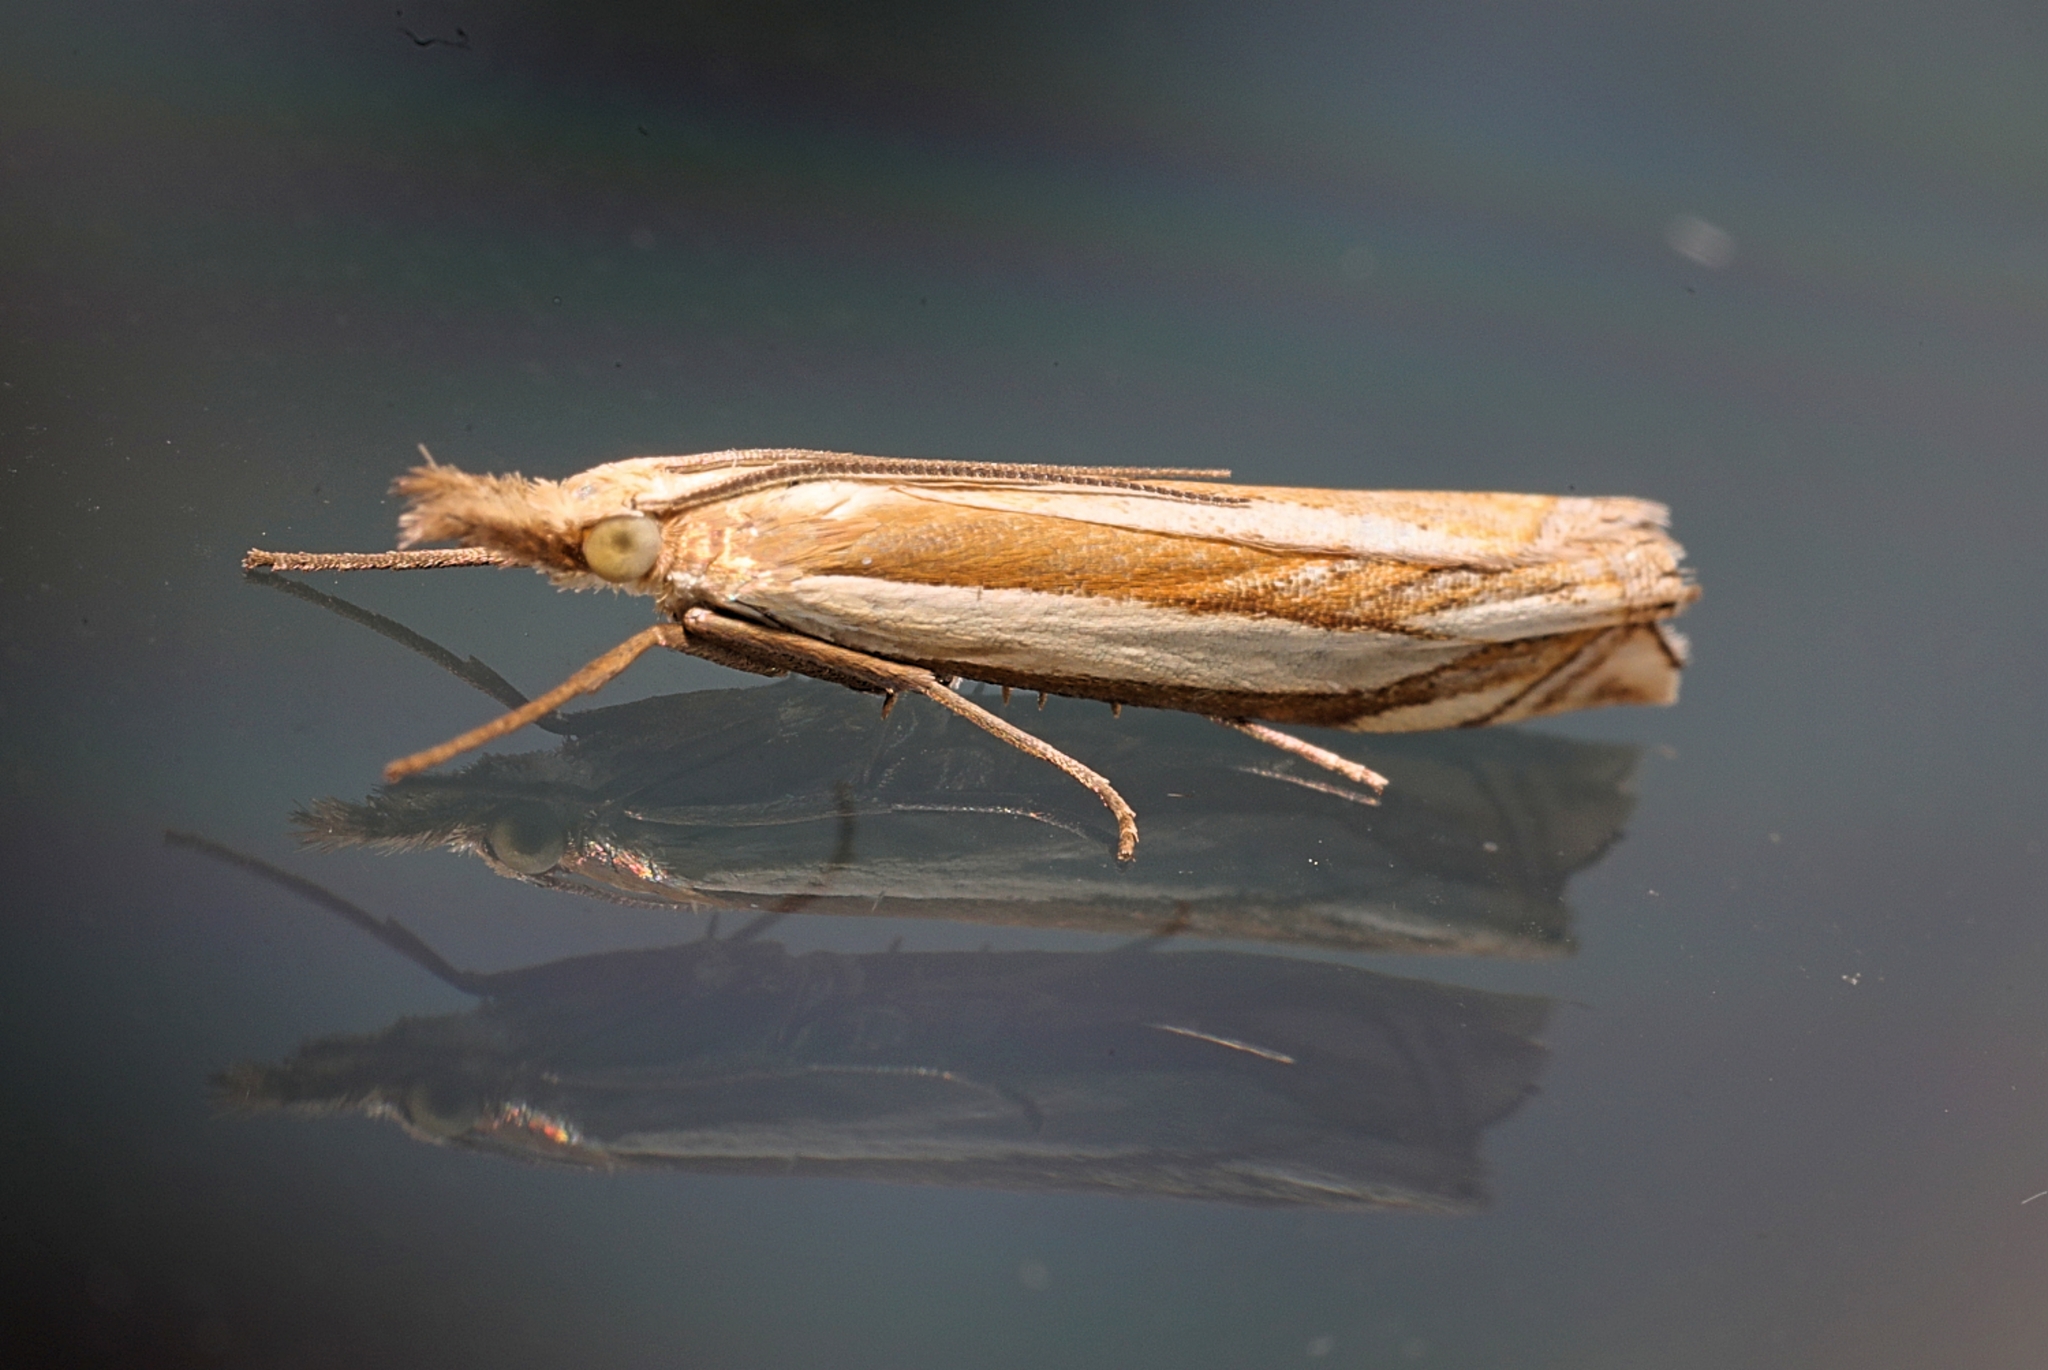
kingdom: Animalia
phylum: Arthropoda
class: Insecta
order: Lepidoptera
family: Crambidae
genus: Crambus
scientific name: Crambus pascuella
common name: Inlaid grass-veneer
